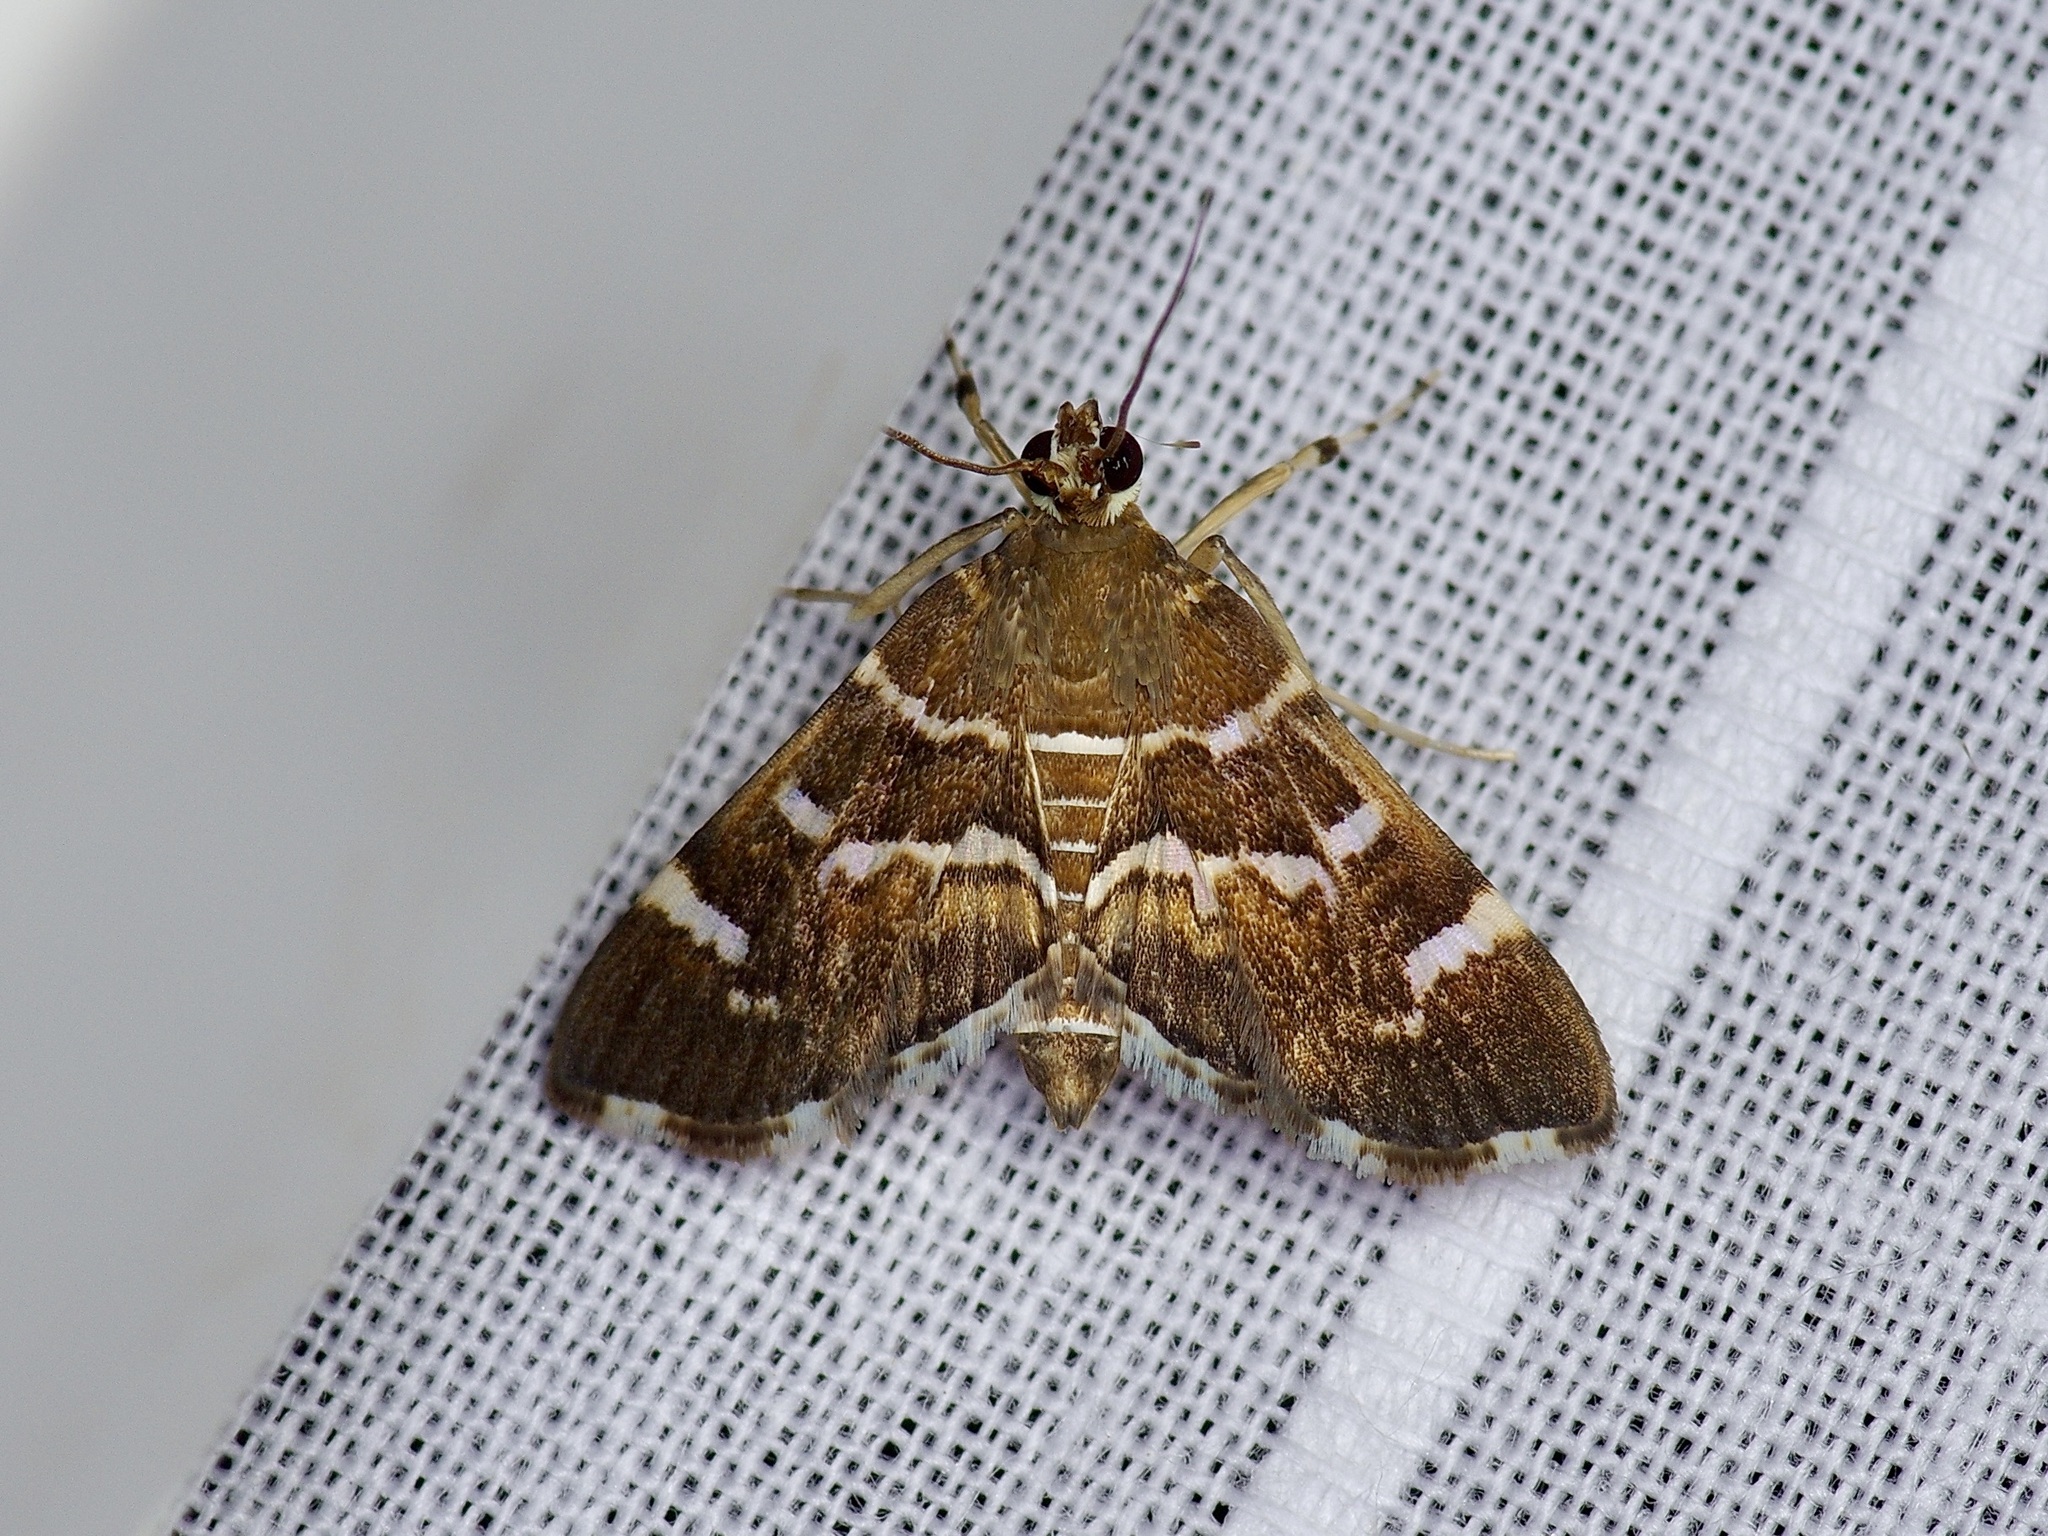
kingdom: Animalia
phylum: Arthropoda
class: Insecta
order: Lepidoptera
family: Crambidae
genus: Hymenia
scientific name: Hymenia perspectalis
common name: Spotted beet webworm
